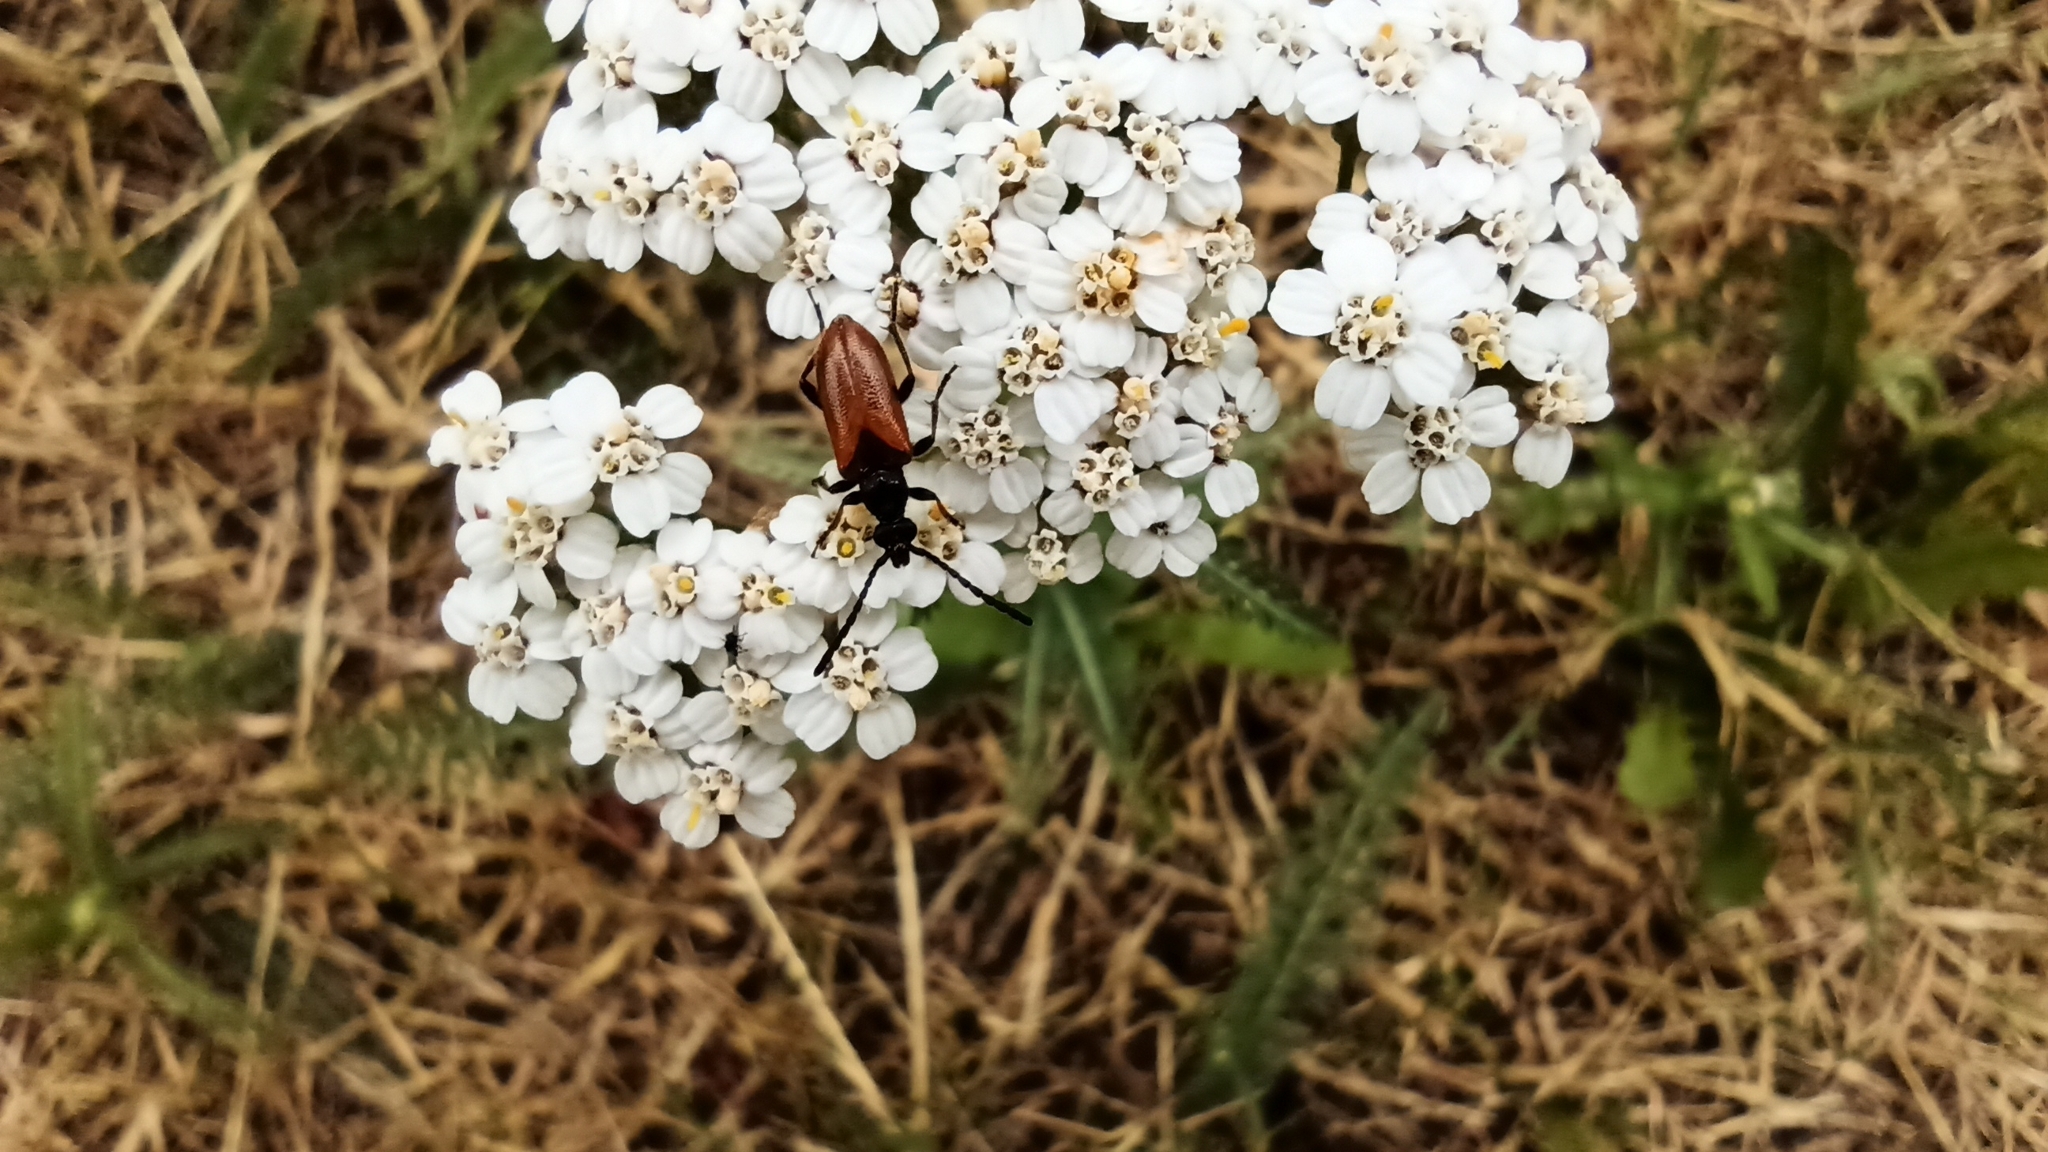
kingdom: Animalia
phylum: Arthropoda
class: Insecta
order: Coleoptera
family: Cerambycidae
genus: Pseudovadonia
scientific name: Pseudovadonia livida
